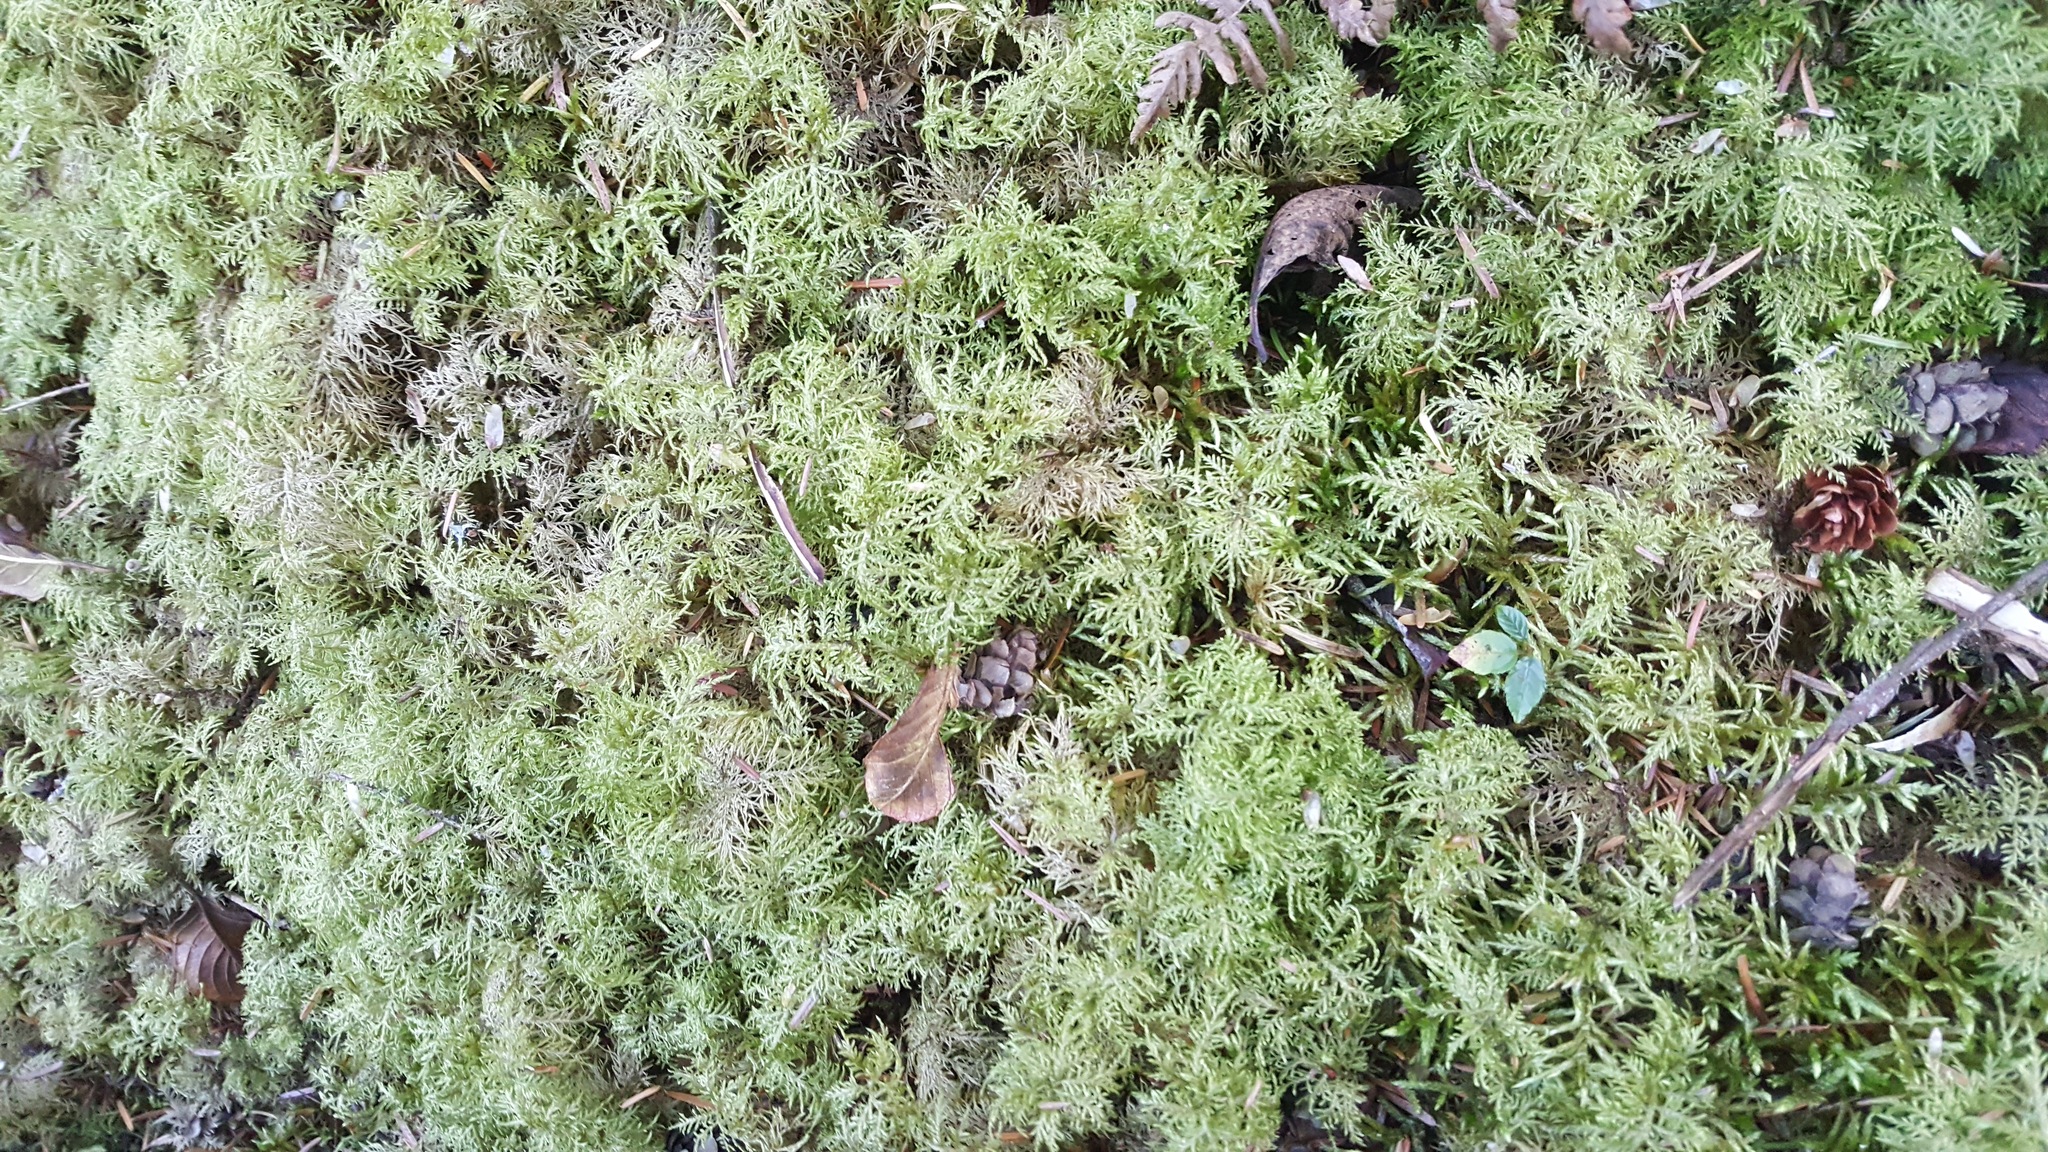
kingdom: Plantae
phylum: Bryophyta
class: Bryopsida
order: Hypnales
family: Hylocomiaceae
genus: Hylocomium
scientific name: Hylocomium splendens
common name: Stairstep moss
